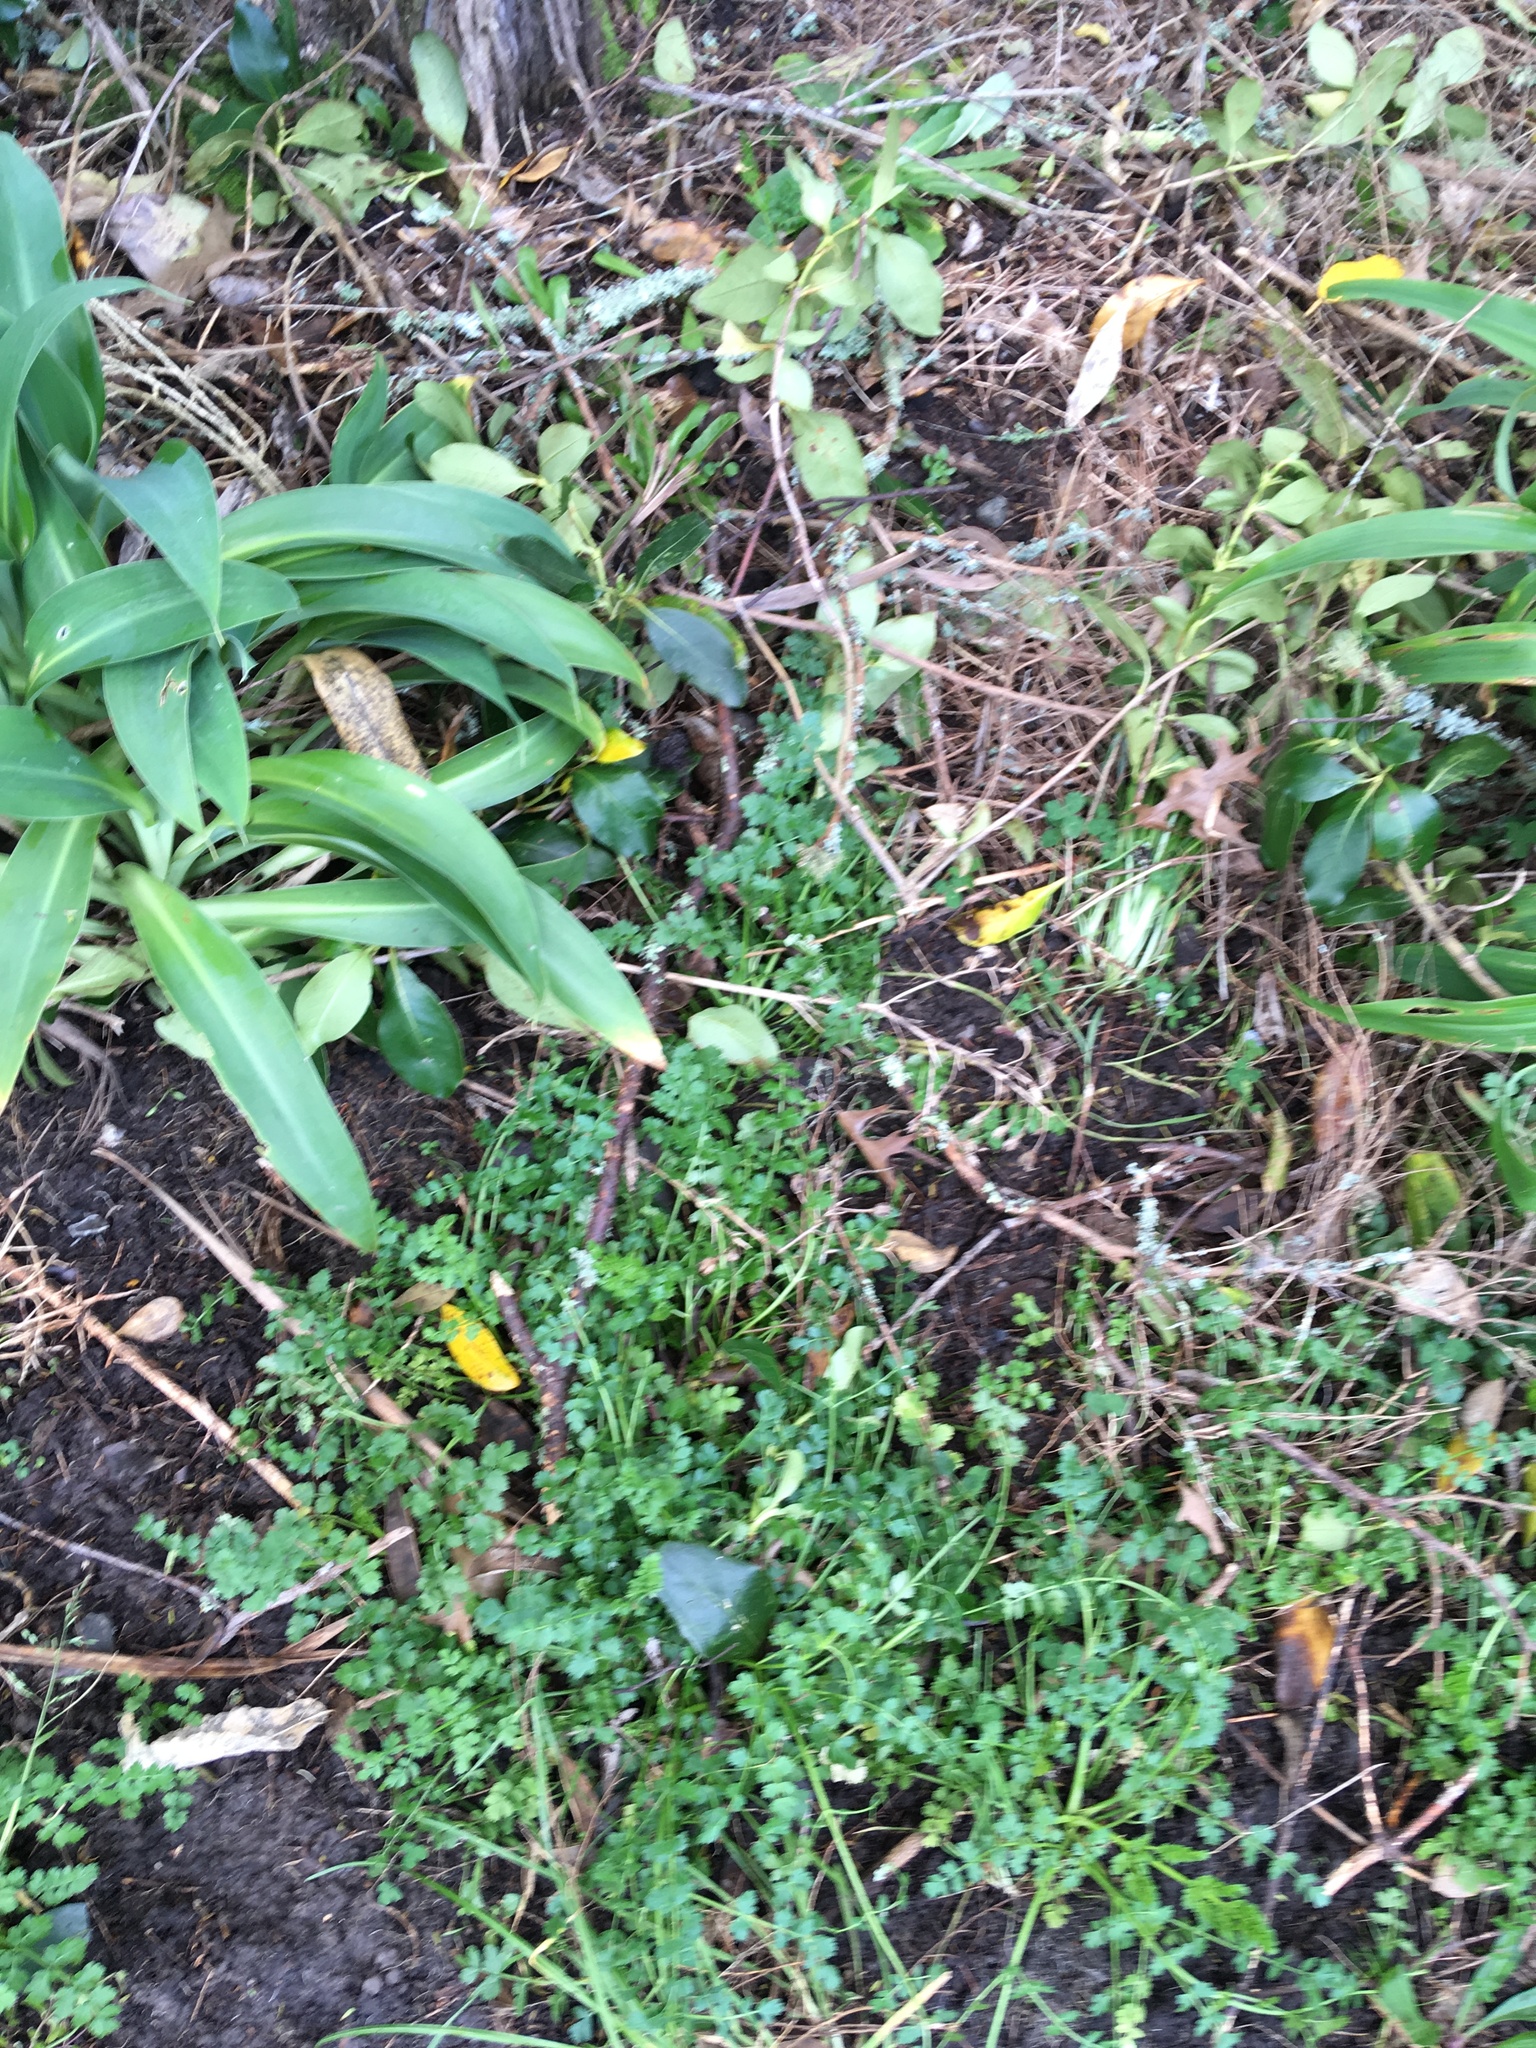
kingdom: Plantae
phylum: Tracheophyta
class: Liliopsida
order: Asparagales
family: Asparagaceae
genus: Arthropodium
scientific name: Arthropodium cirratum
